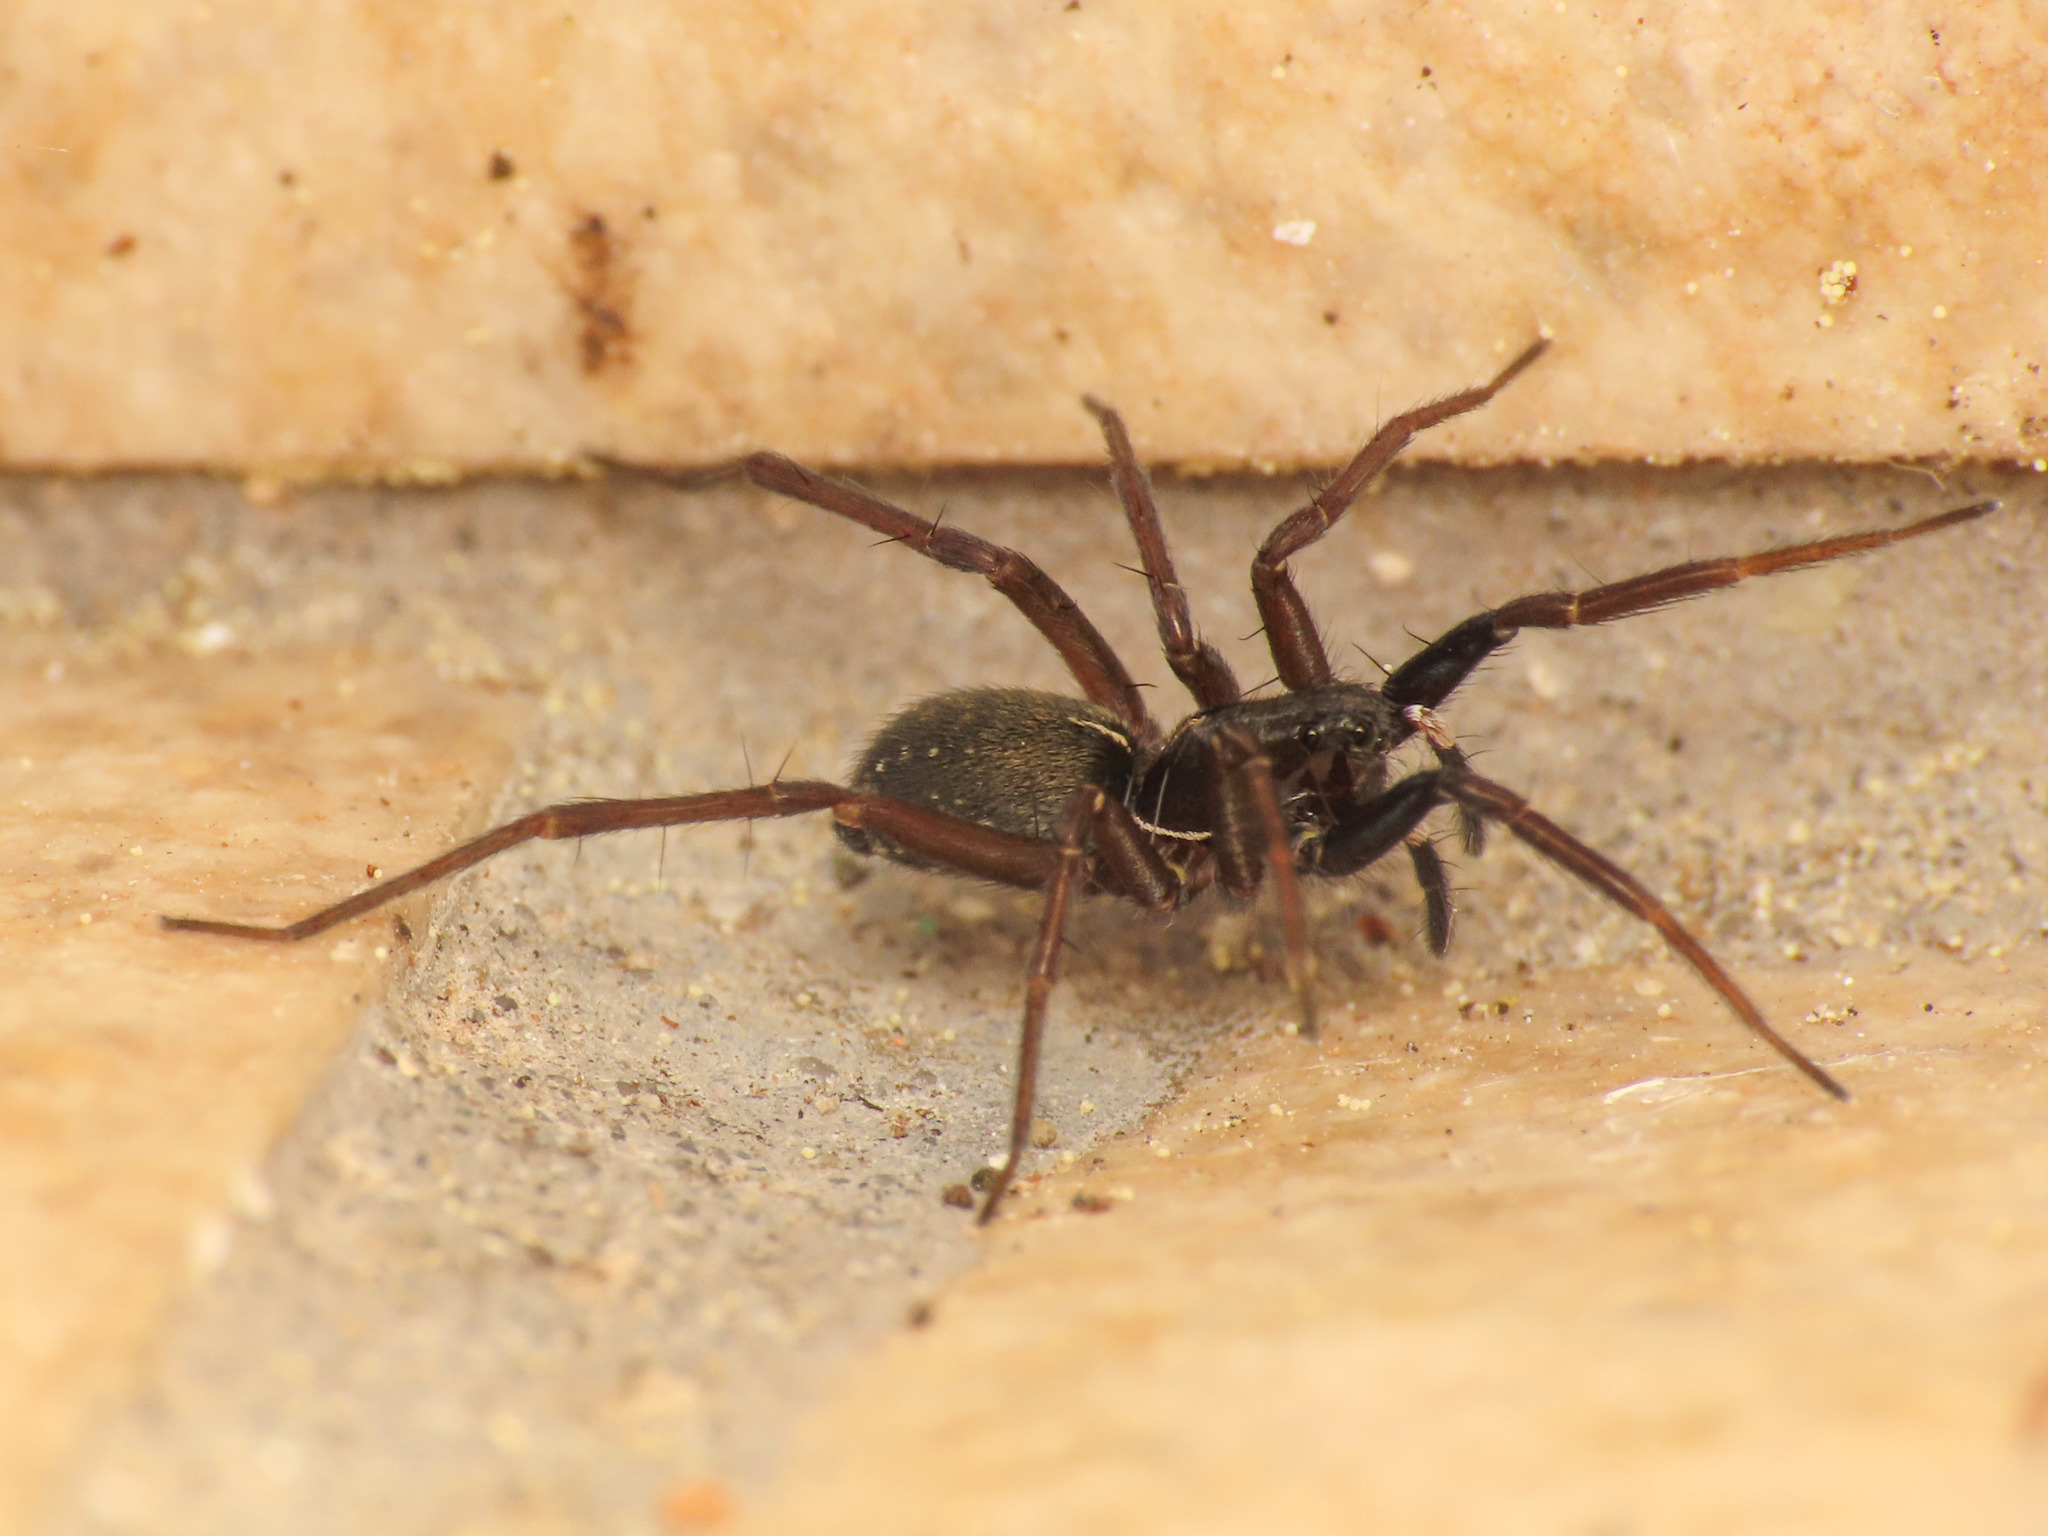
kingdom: Animalia
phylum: Arthropoda
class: Arachnida
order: Araneae
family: Lycosidae
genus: Aulonia
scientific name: Aulonia albimana
